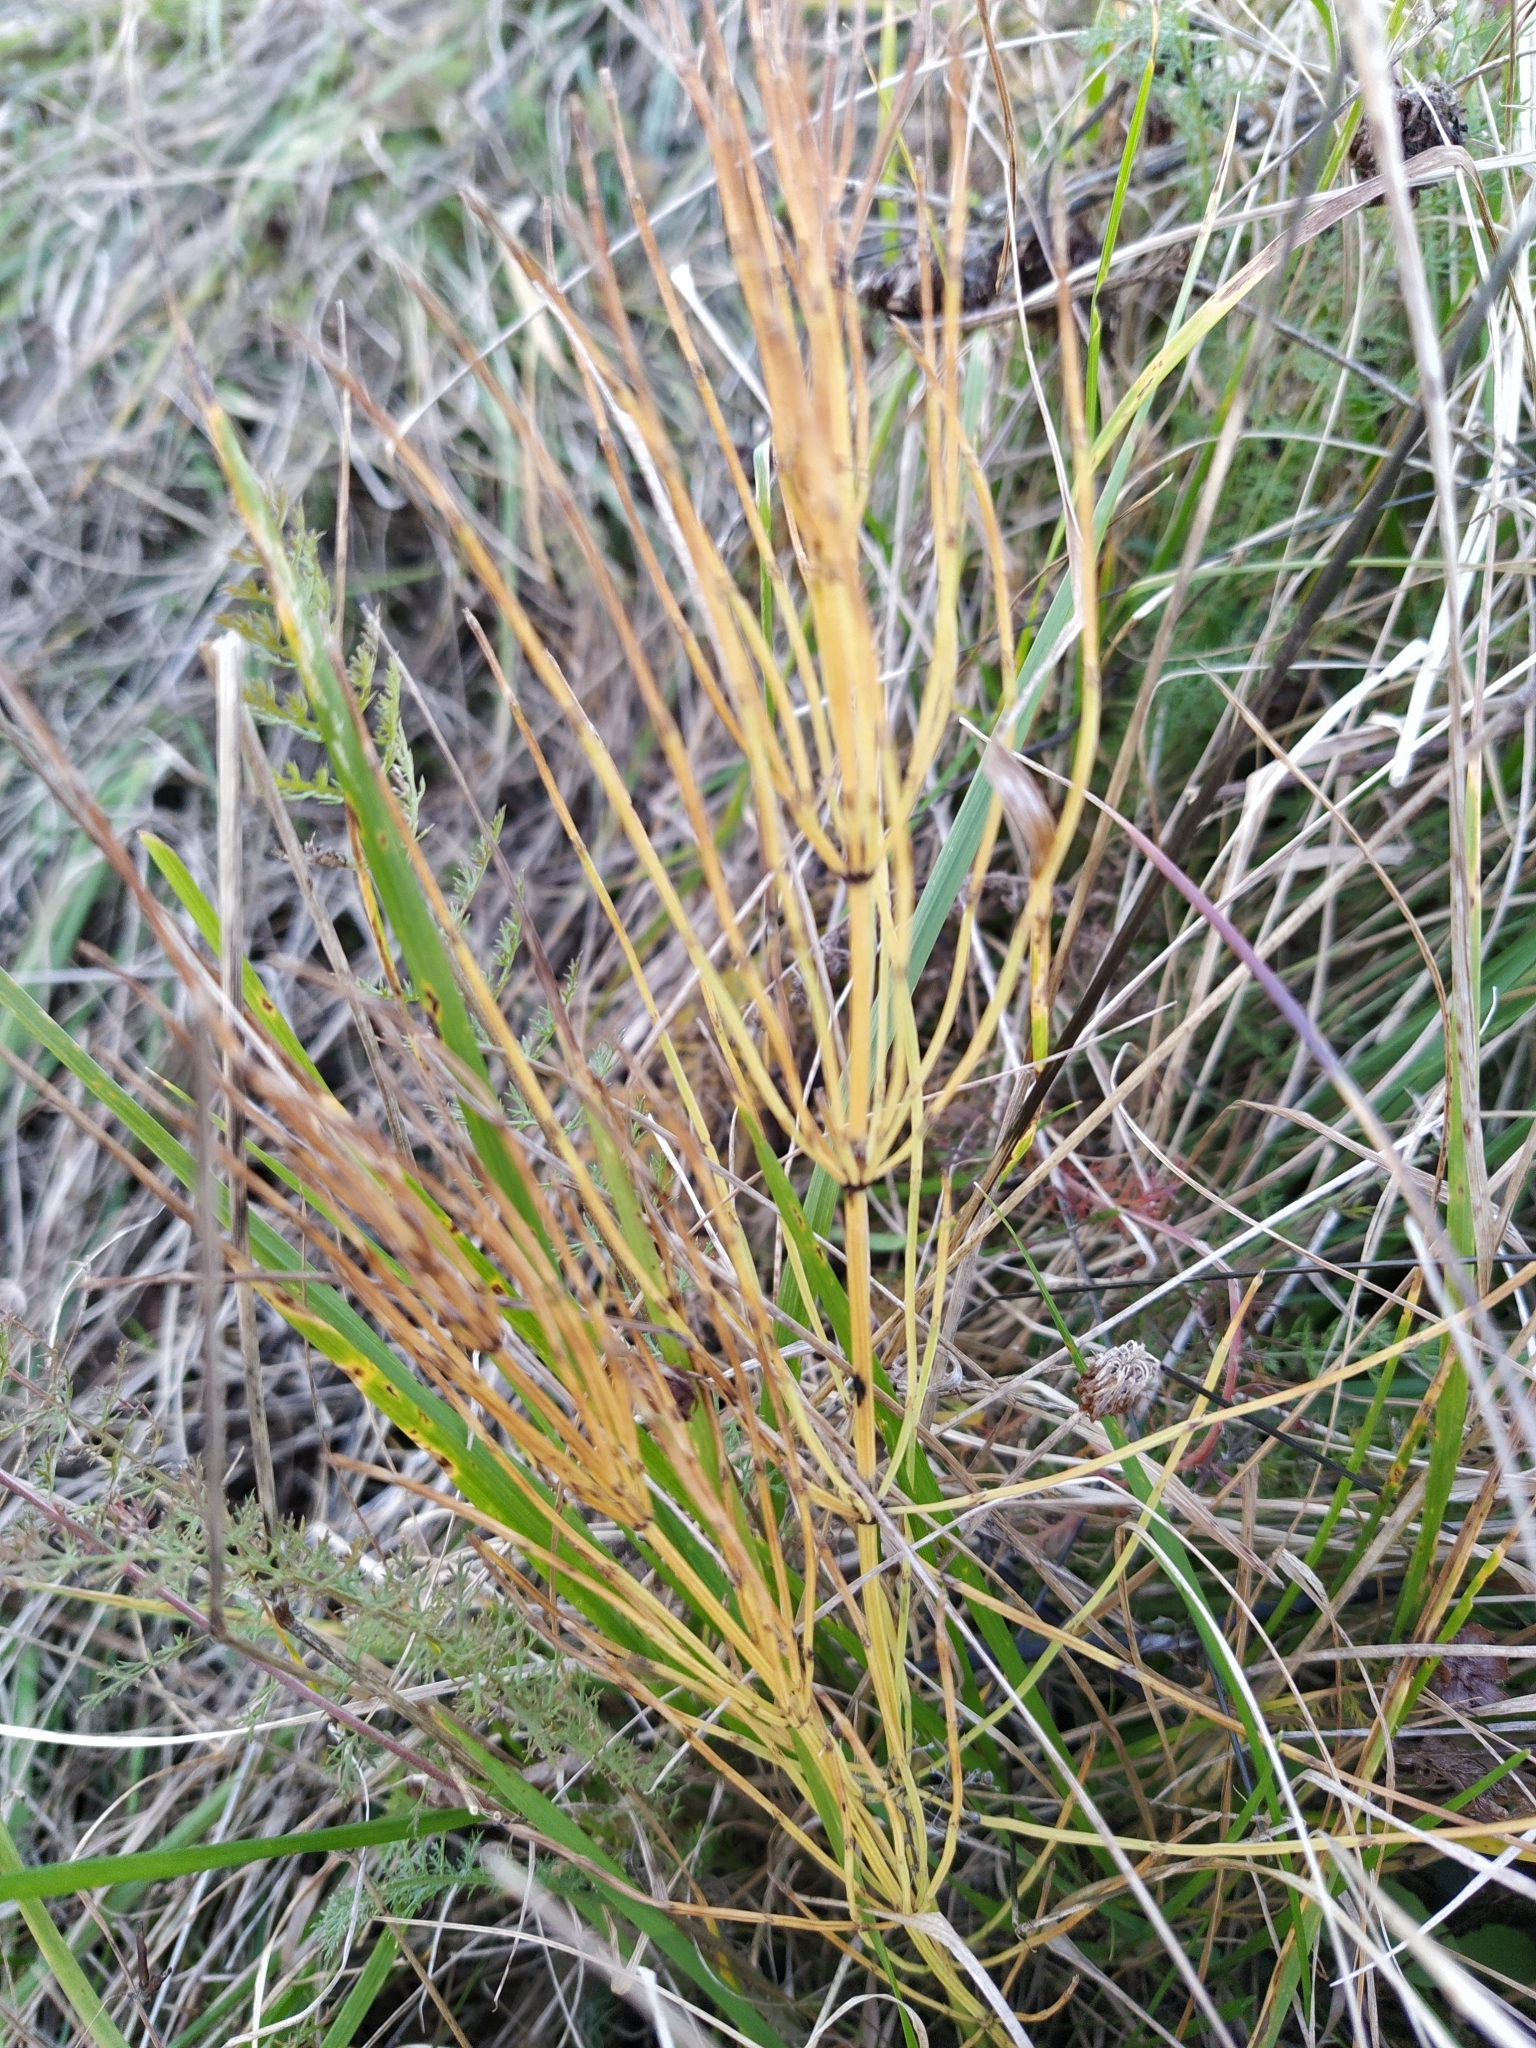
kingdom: Plantae
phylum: Tracheophyta
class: Polypodiopsida
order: Equisetales
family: Equisetaceae
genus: Equisetum
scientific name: Equisetum arvense
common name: Field horsetail
